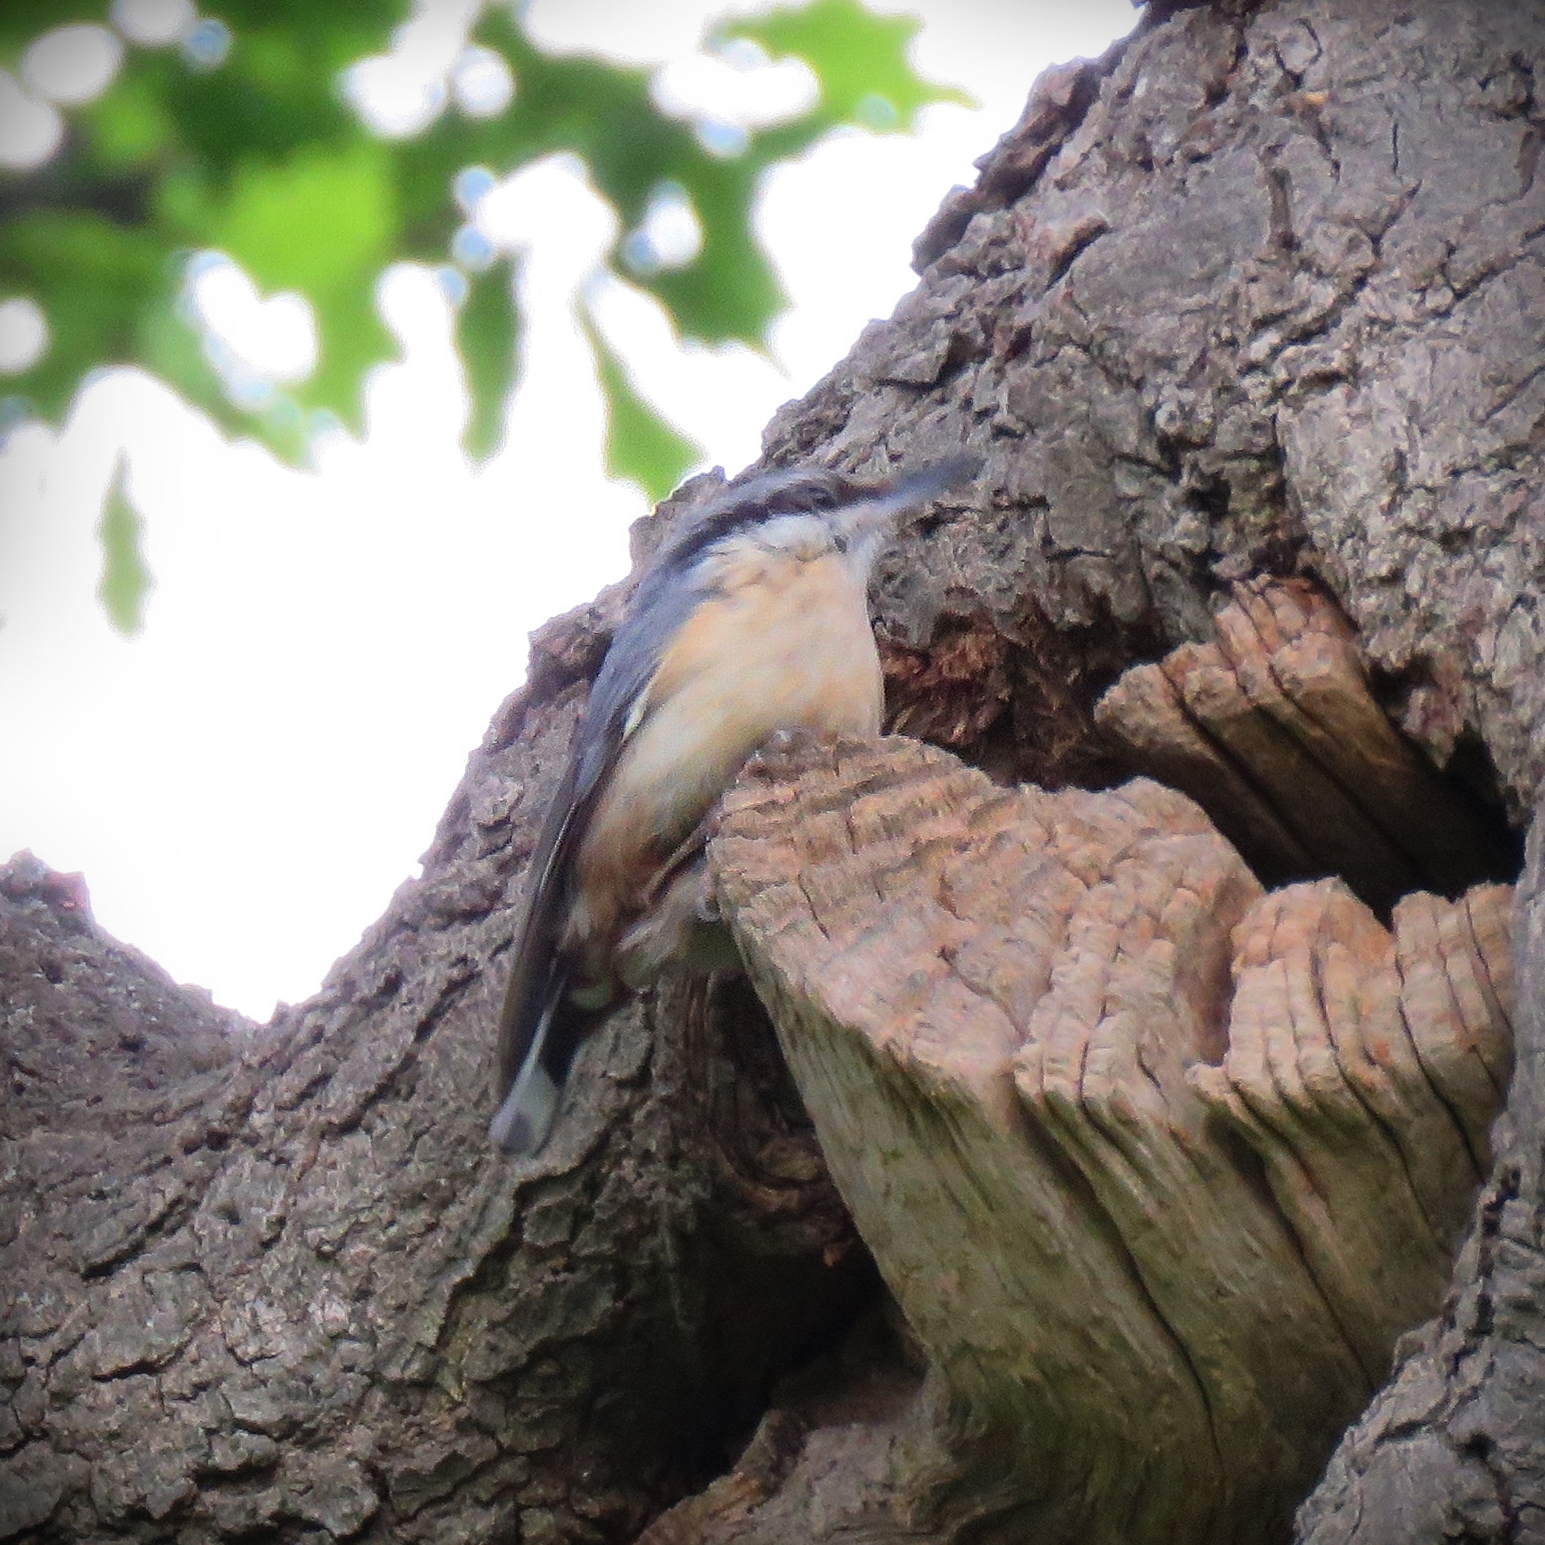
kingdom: Animalia
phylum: Chordata
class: Aves
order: Passeriformes
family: Sittidae
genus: Sitta
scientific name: Sitta europaea
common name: Eurasian nuthatch
